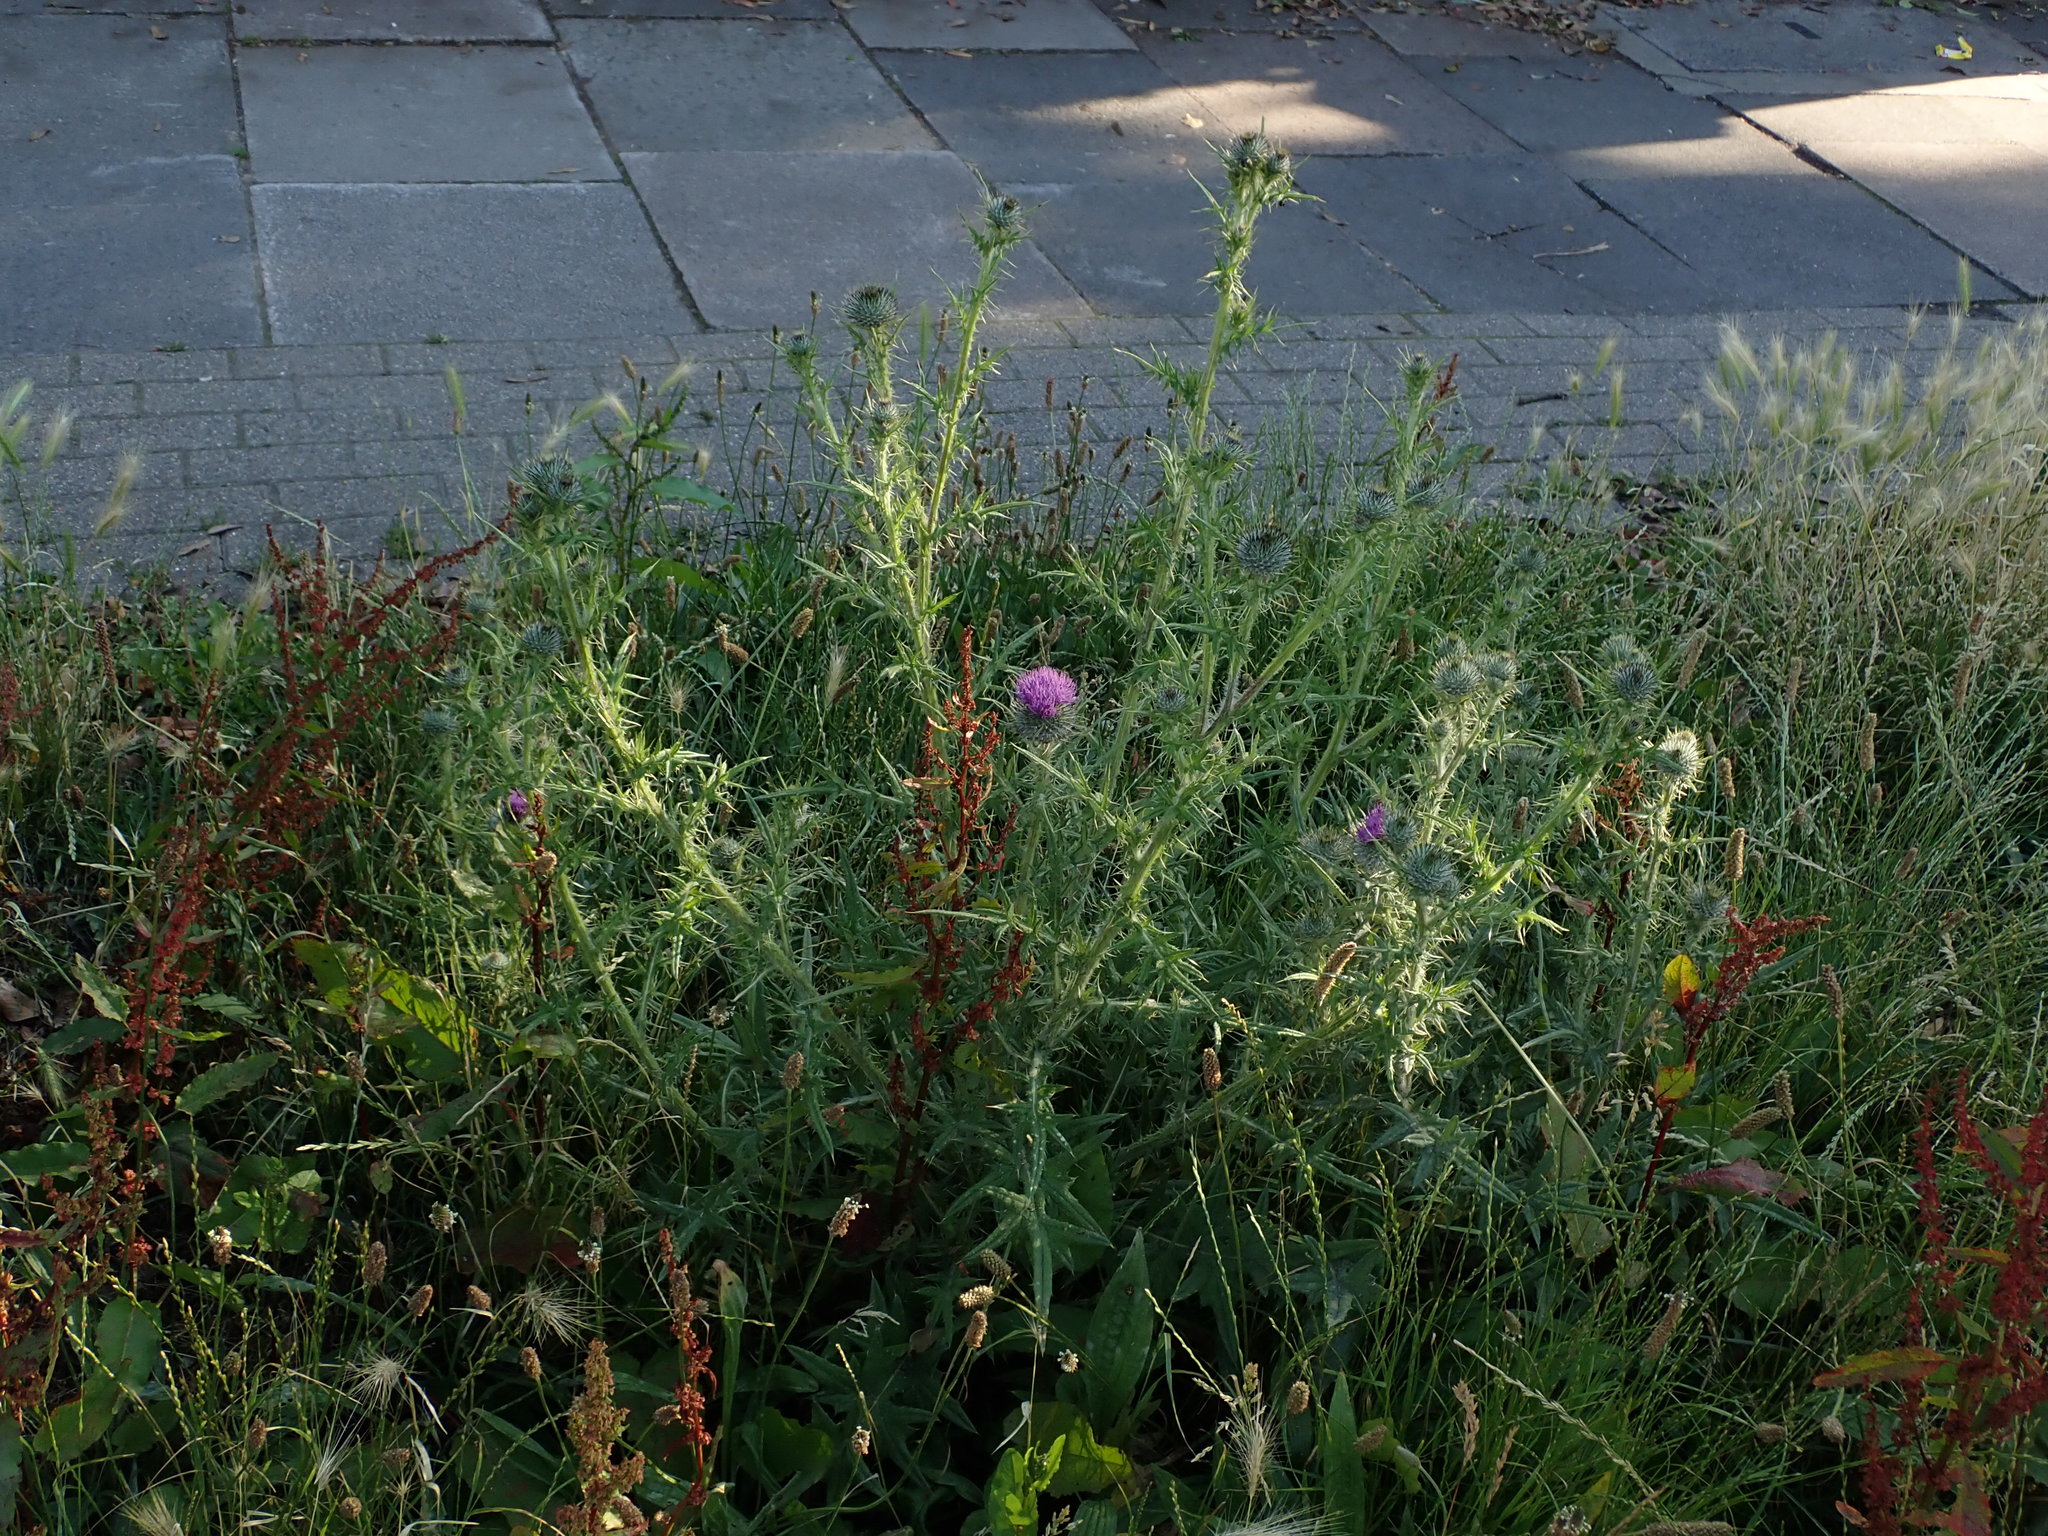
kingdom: Plantae
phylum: Tracheophyta
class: Magnoliopsida
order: Asterales
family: Asteraceae
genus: Cirsium
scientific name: Cirsium vulgare
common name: Bull thistle
